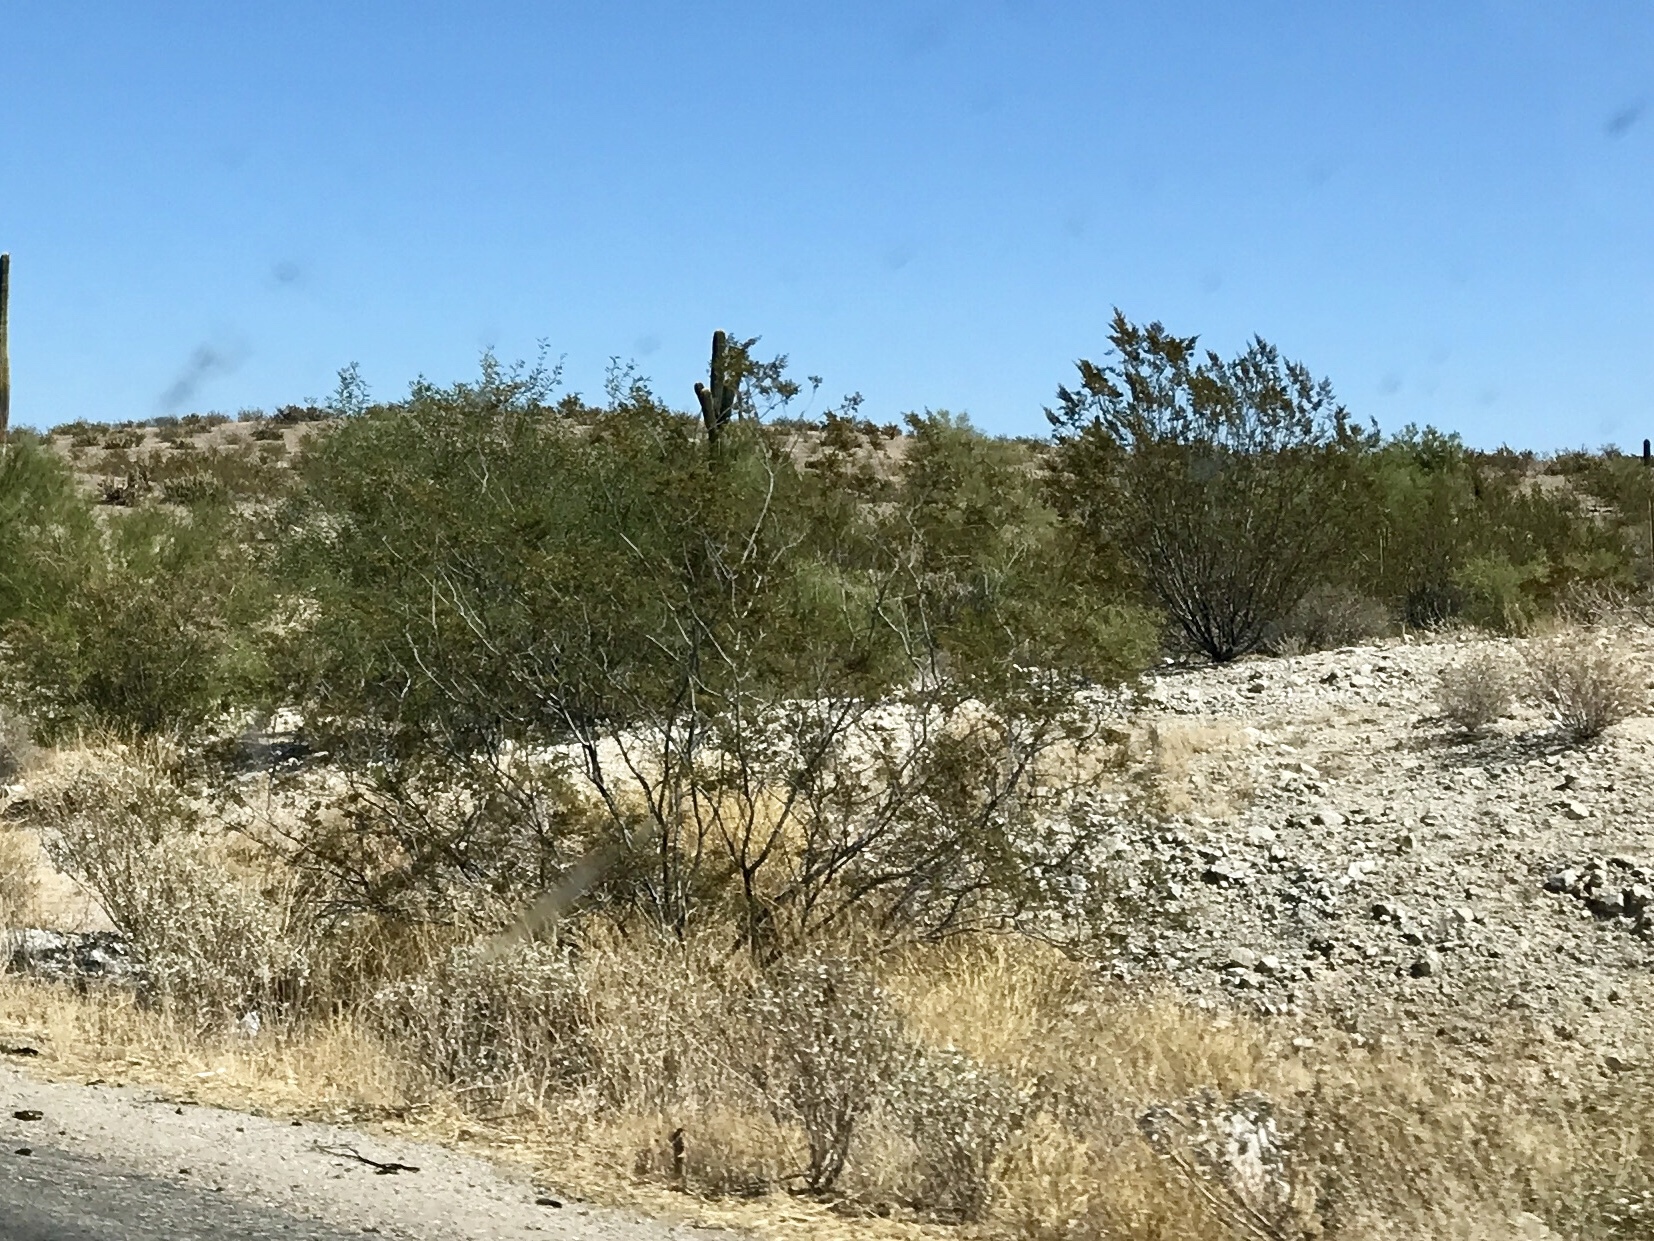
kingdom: Plantae
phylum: Tracheophyta
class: Magnoliopsida
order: Zygophyllales
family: Zygophyllaceae
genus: Larrea
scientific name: Larrea tridentata
